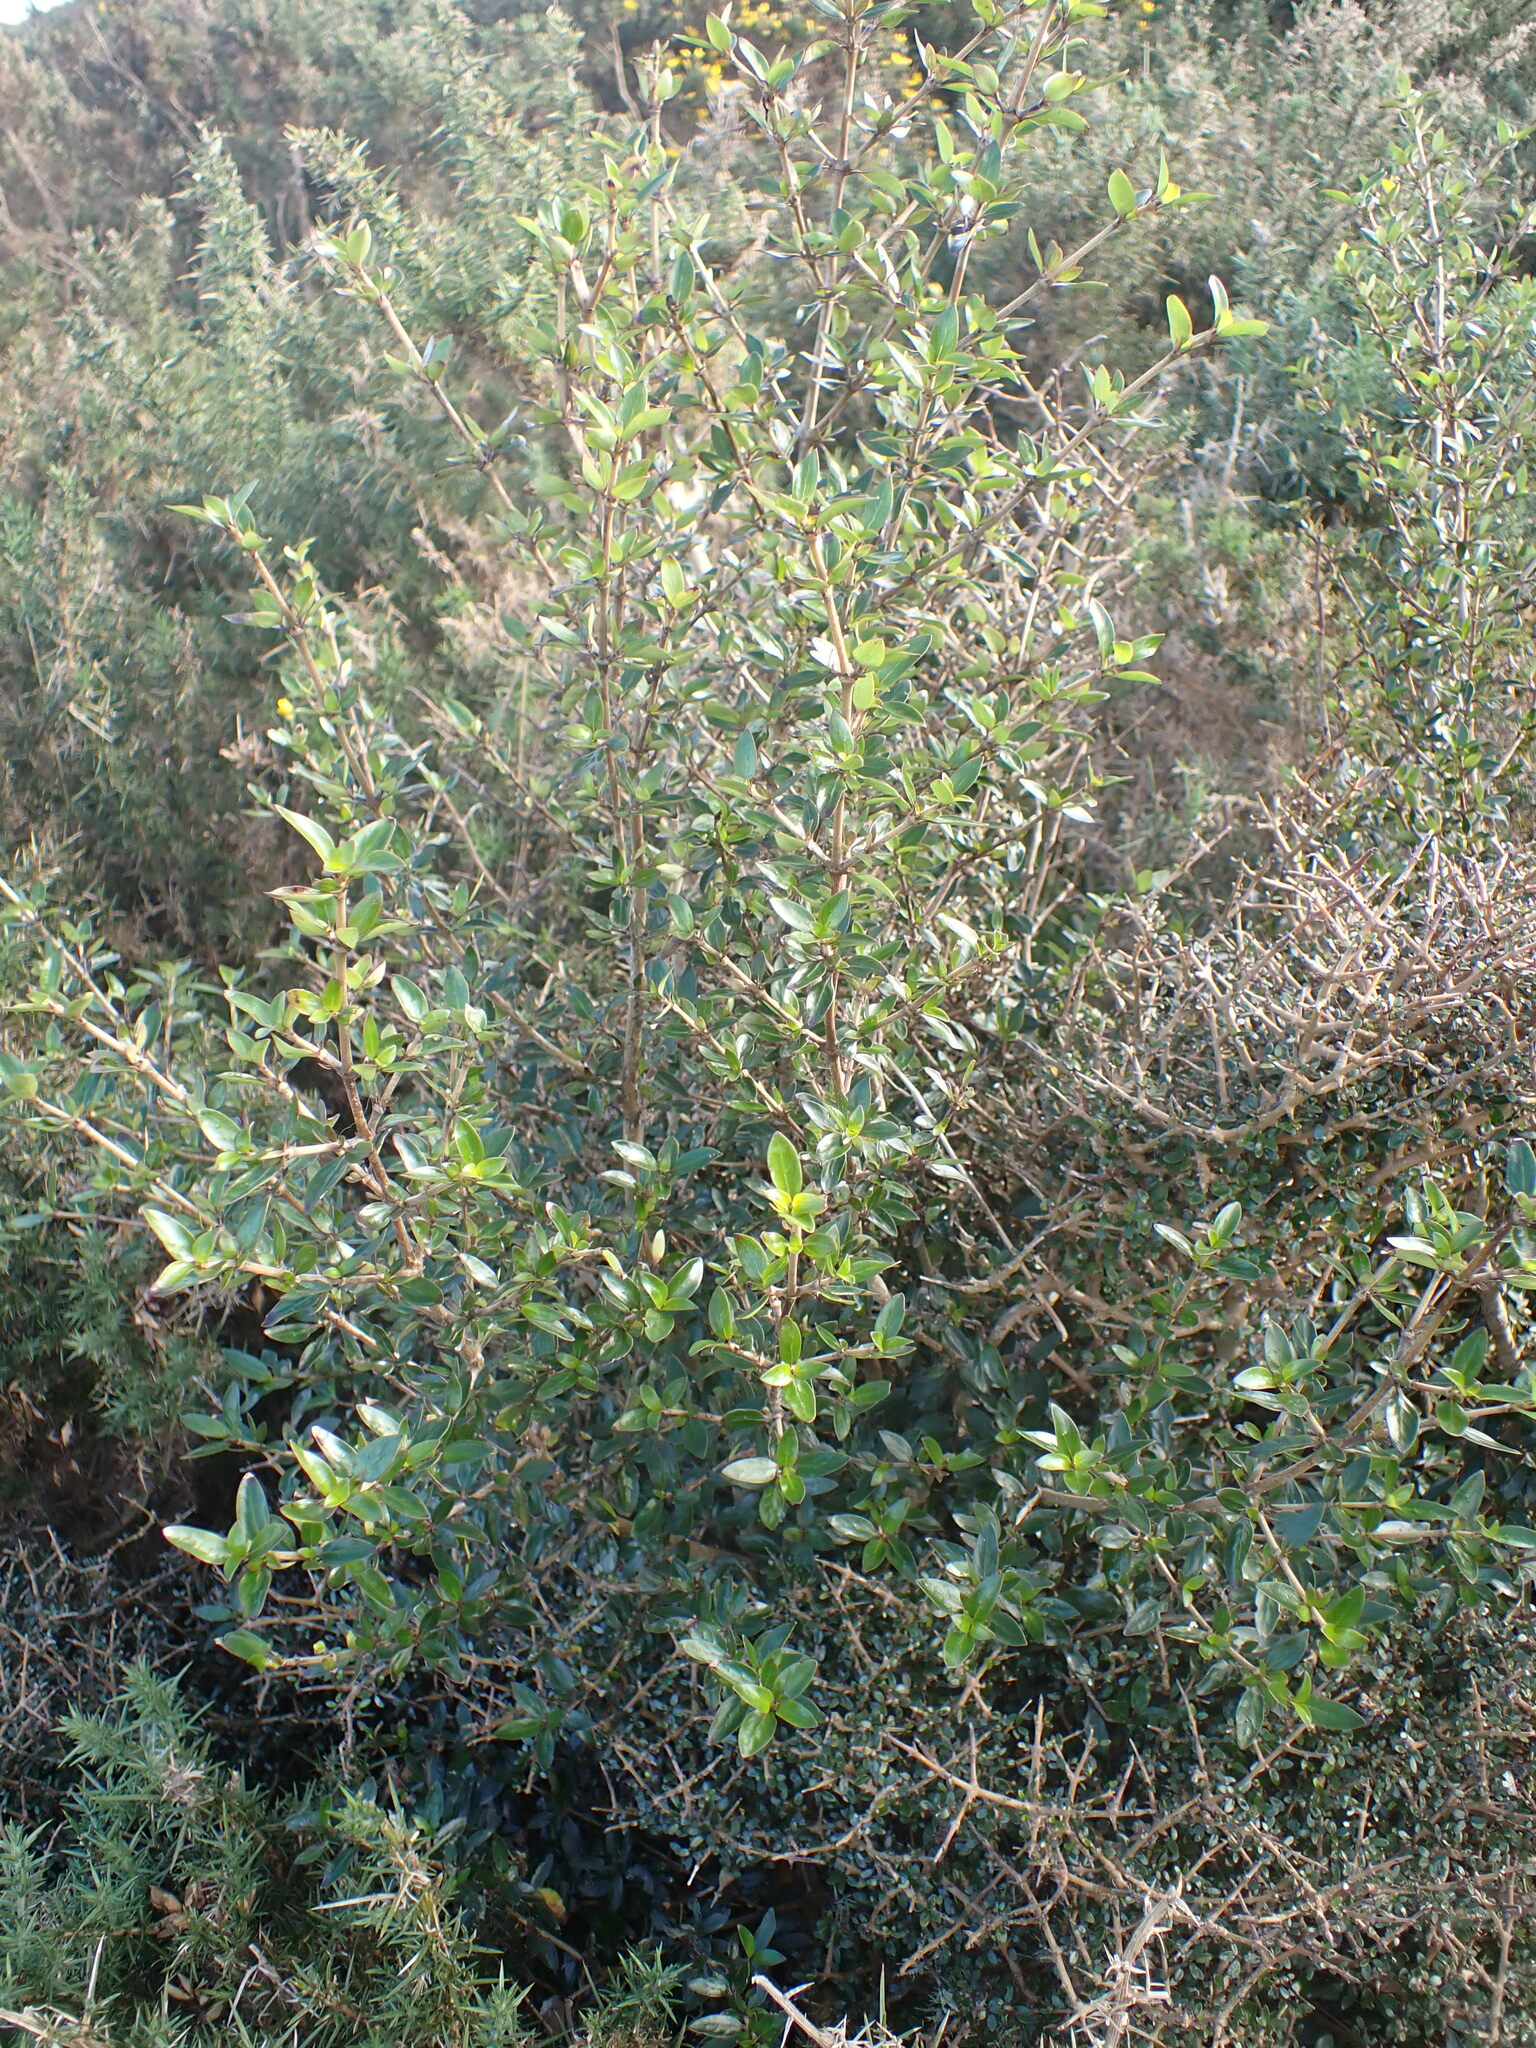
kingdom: Plantae
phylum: Tracheophyta
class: Magnoliopsida
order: Gentianales
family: Rubiaceae
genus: Coprosma
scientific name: Coprosma cunninghamii
